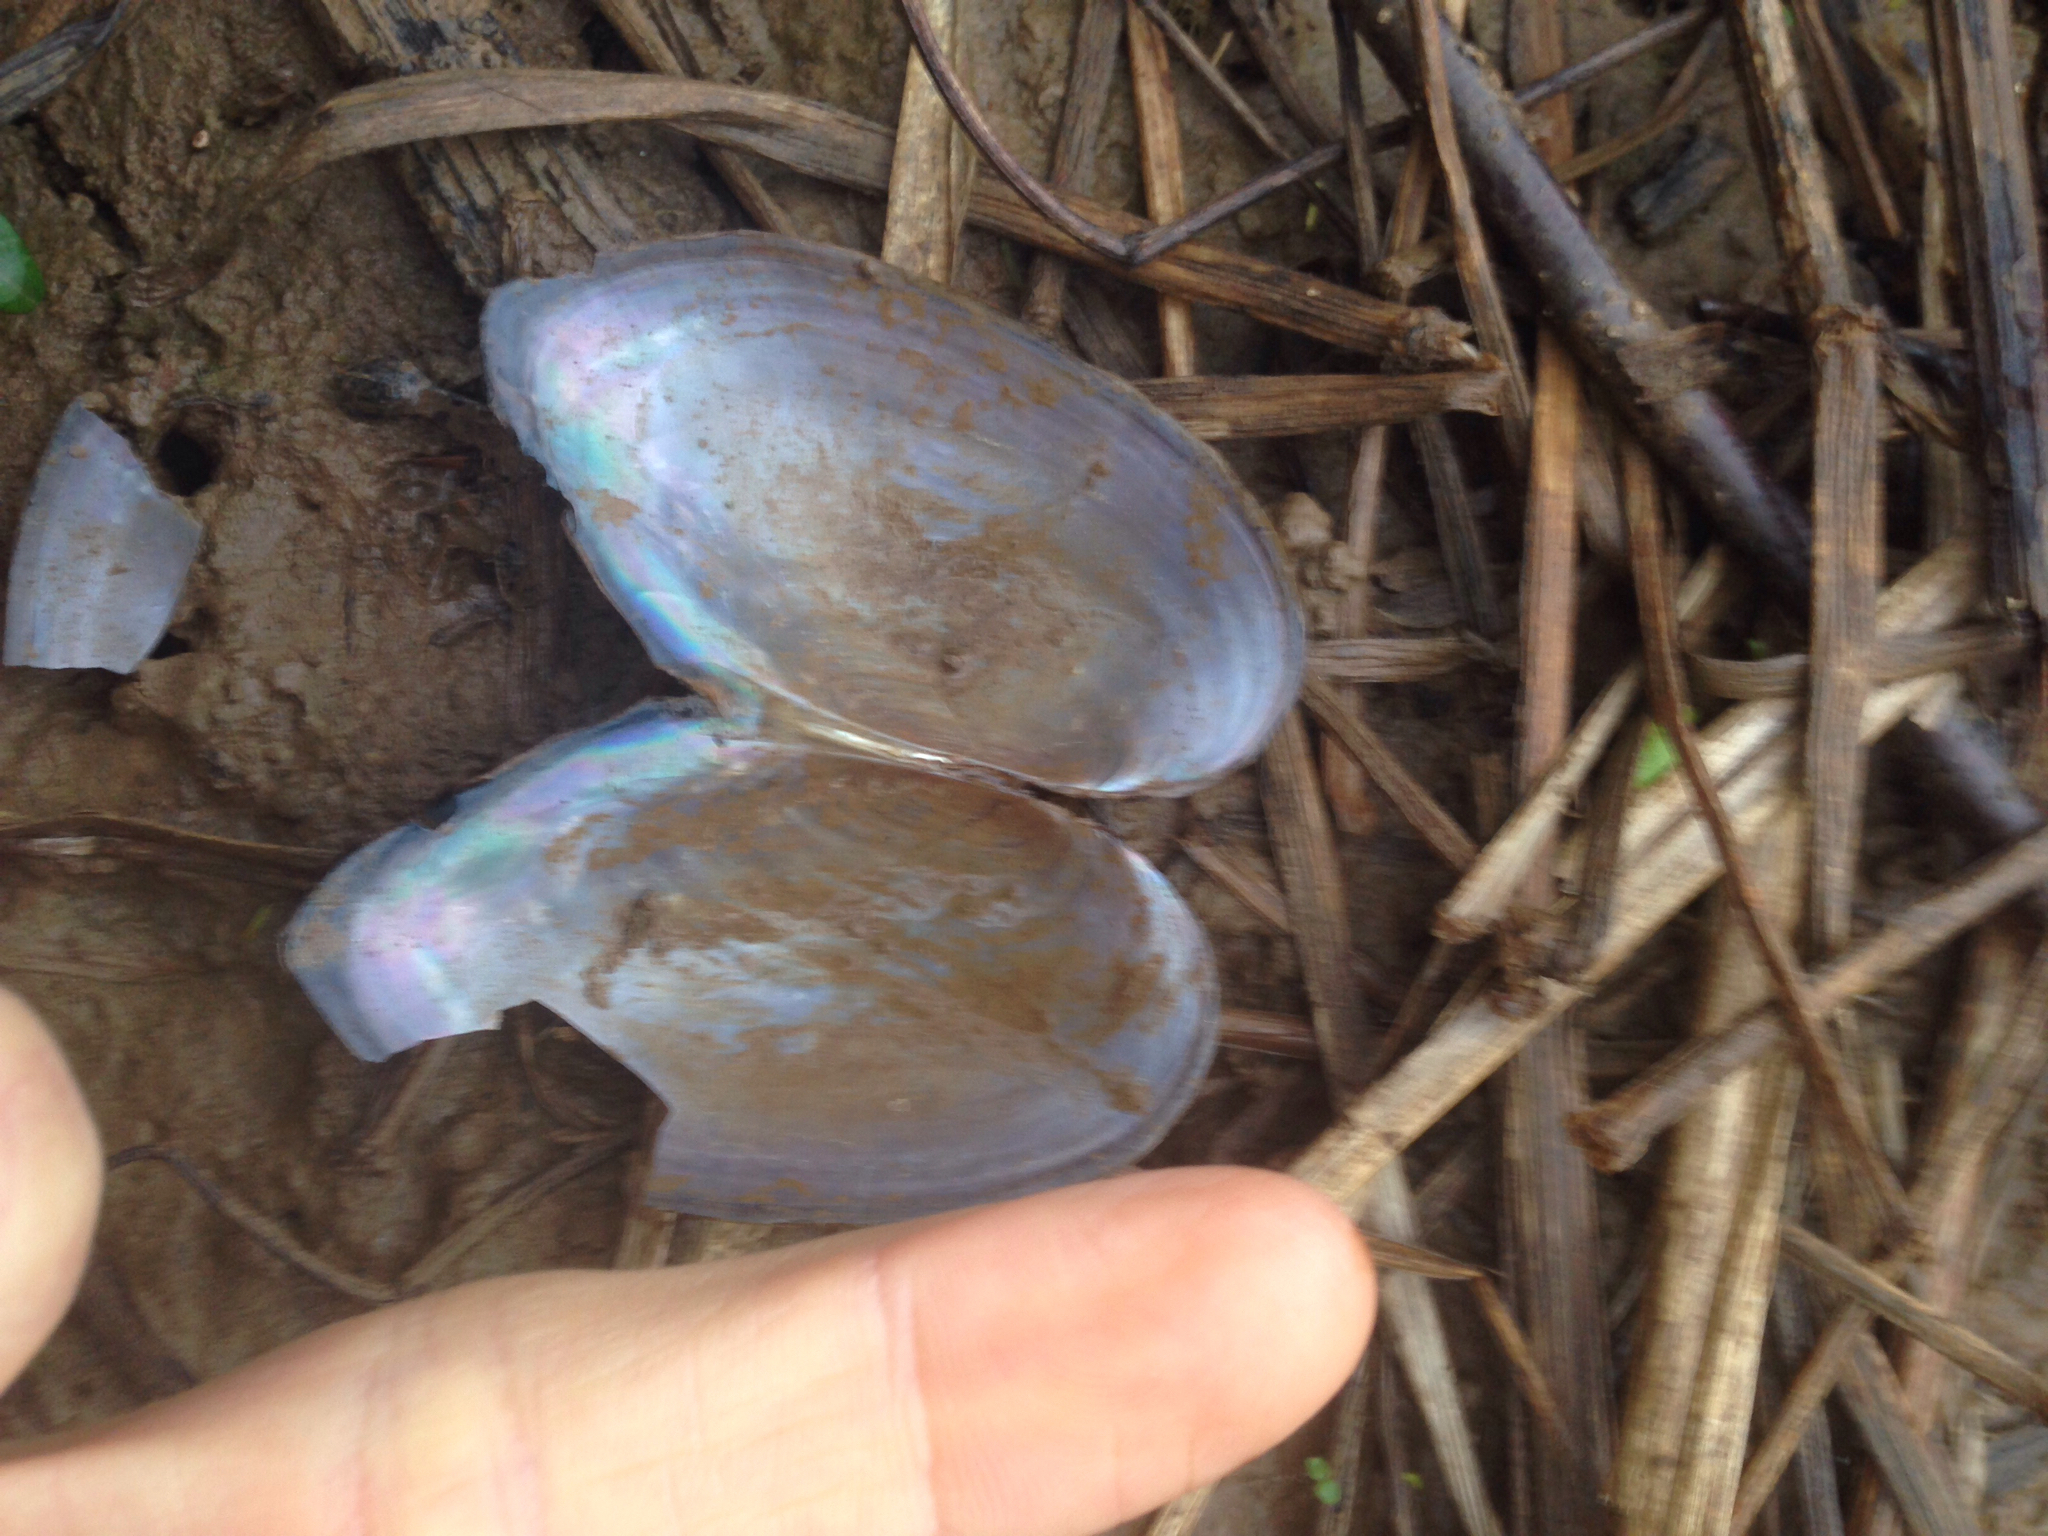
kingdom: Animalia
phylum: Mollusca
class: Bivalvia
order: Unionida
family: Unionidae
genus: Utterbackia
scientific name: Utterbackia imbecillis
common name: Paper pondshell
